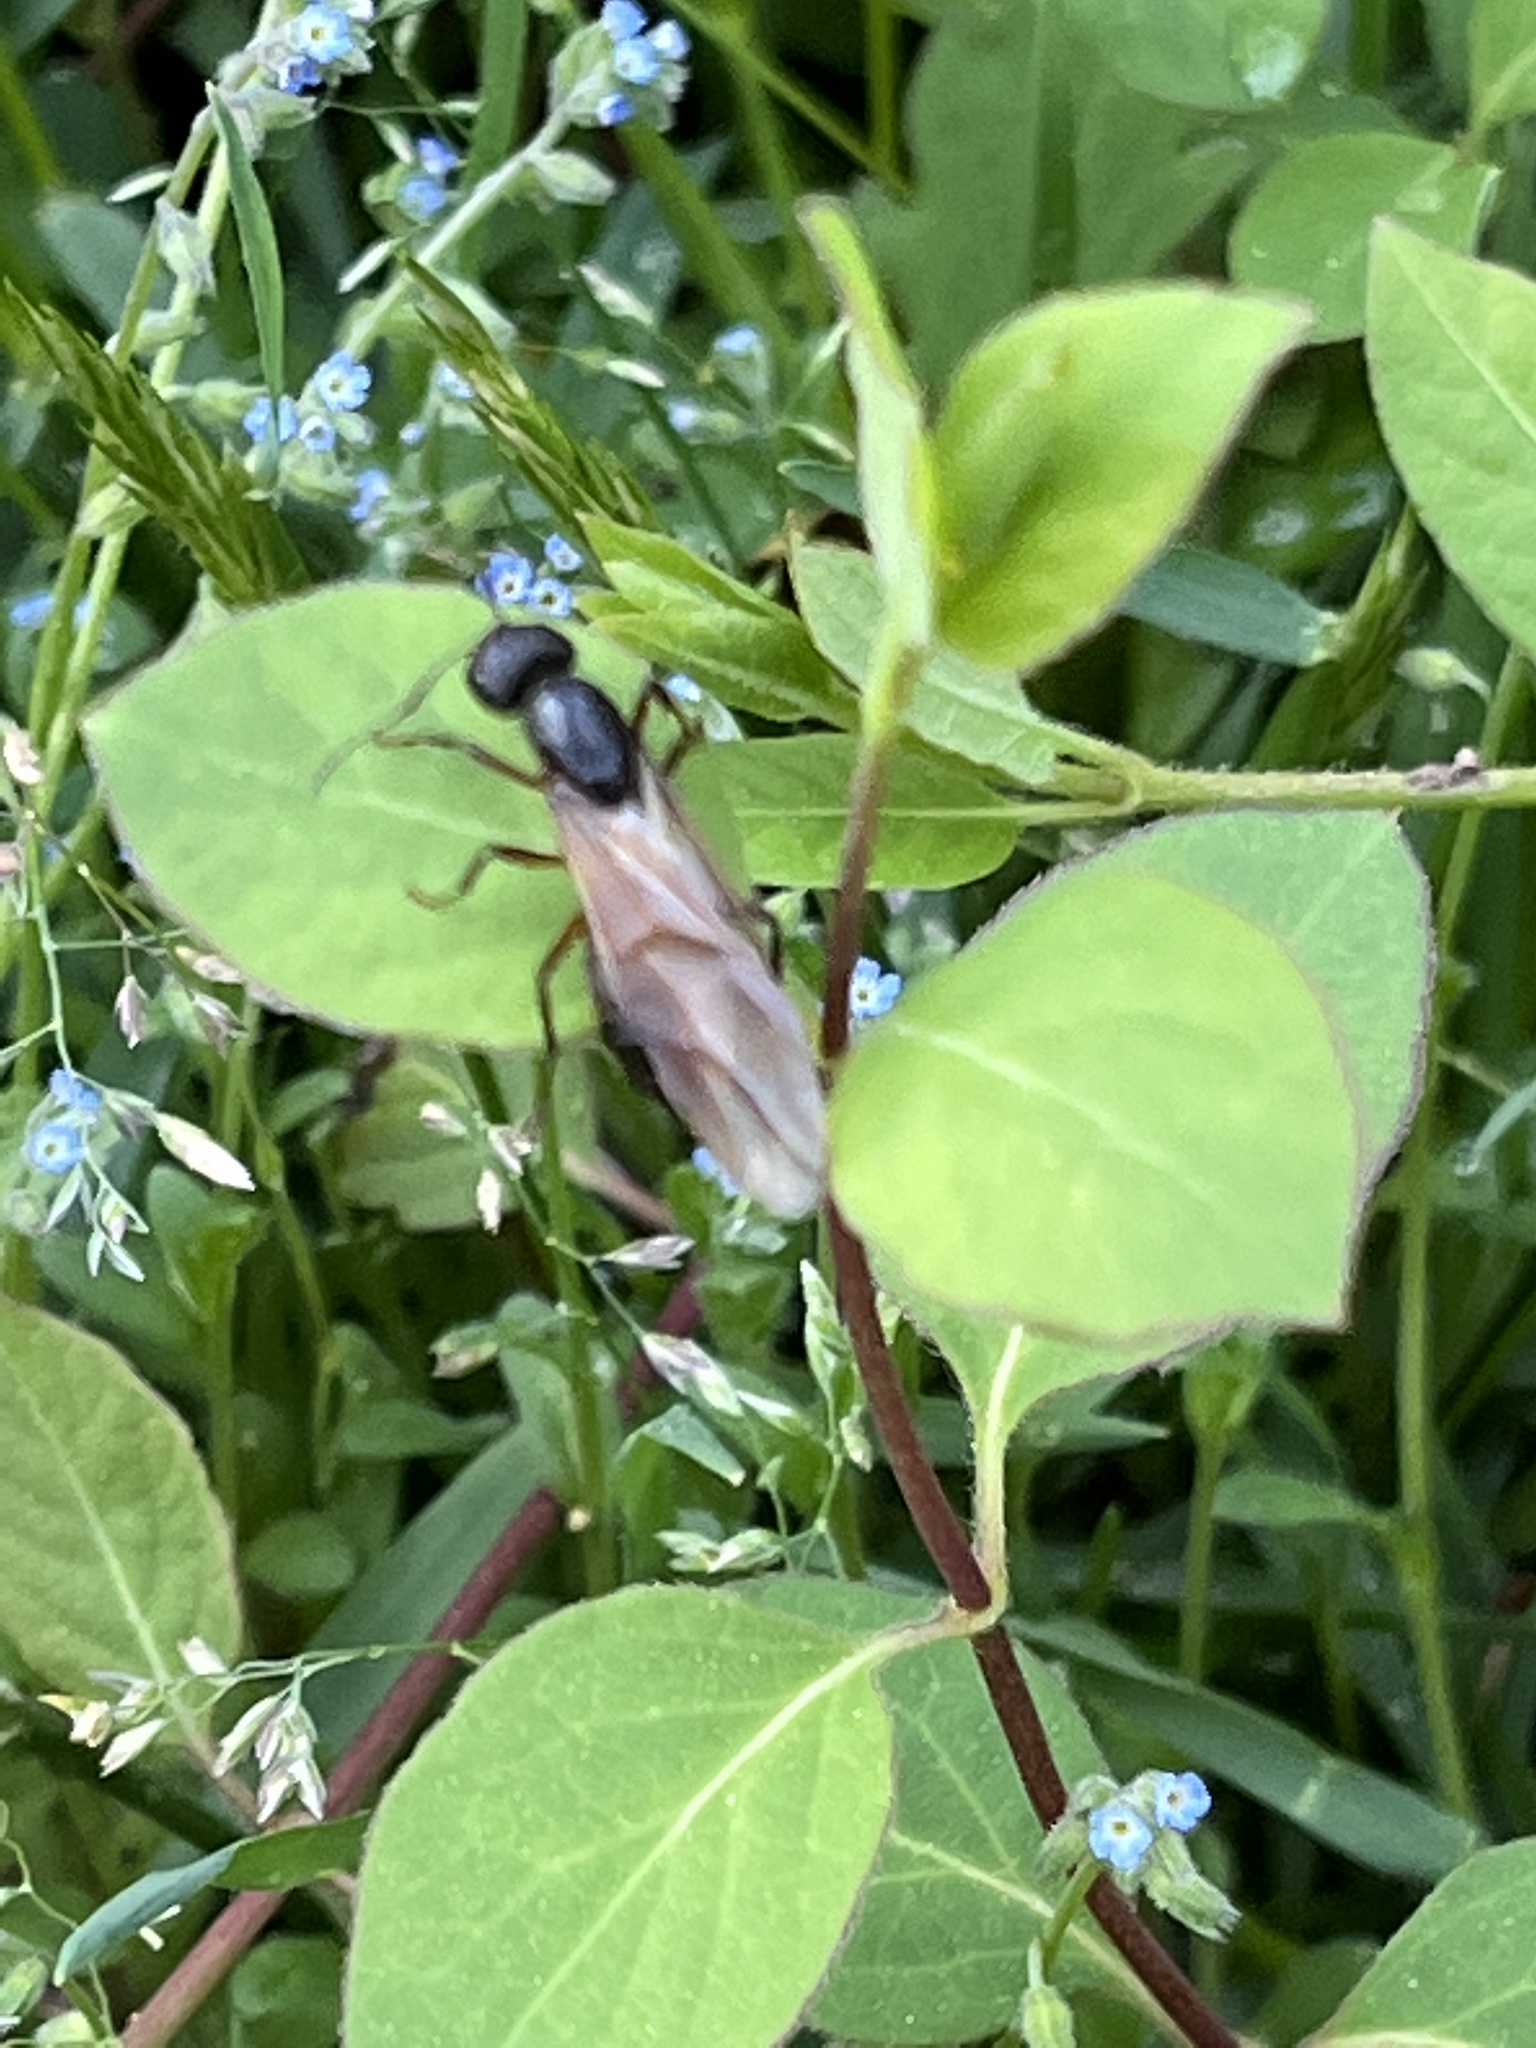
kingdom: Animalia
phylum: Arthropoda
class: Insecta
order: Hymenoptera
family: Formicidae
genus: Camponotus
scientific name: Camponotus chromaiodes
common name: Red carpenter ant
